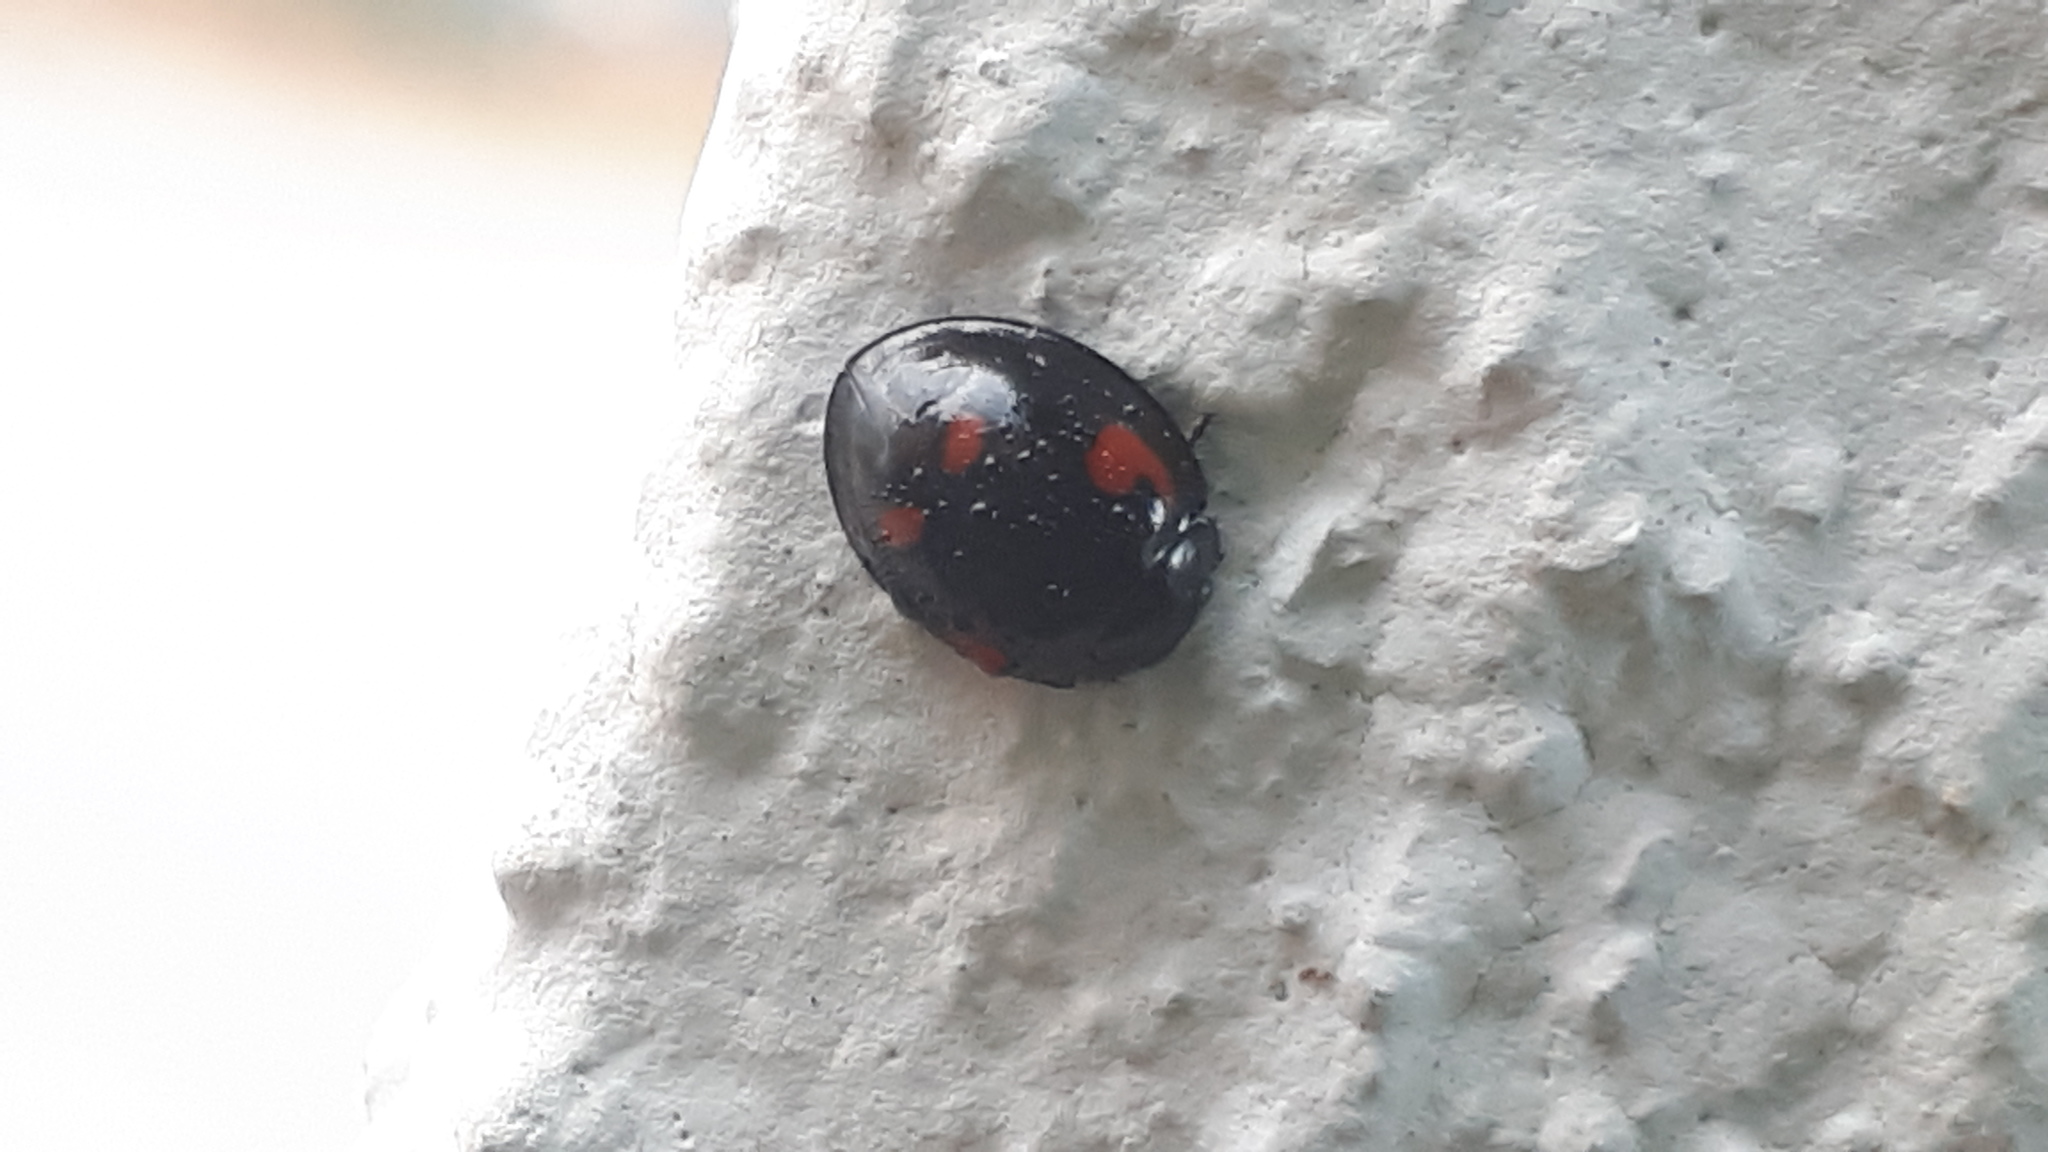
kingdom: Animalia
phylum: Arthropoda
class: Insecta
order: Coleoptera
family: Coccinellidae
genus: Brumus
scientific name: Brumus quadripustulatus
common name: Ladybird beetle
